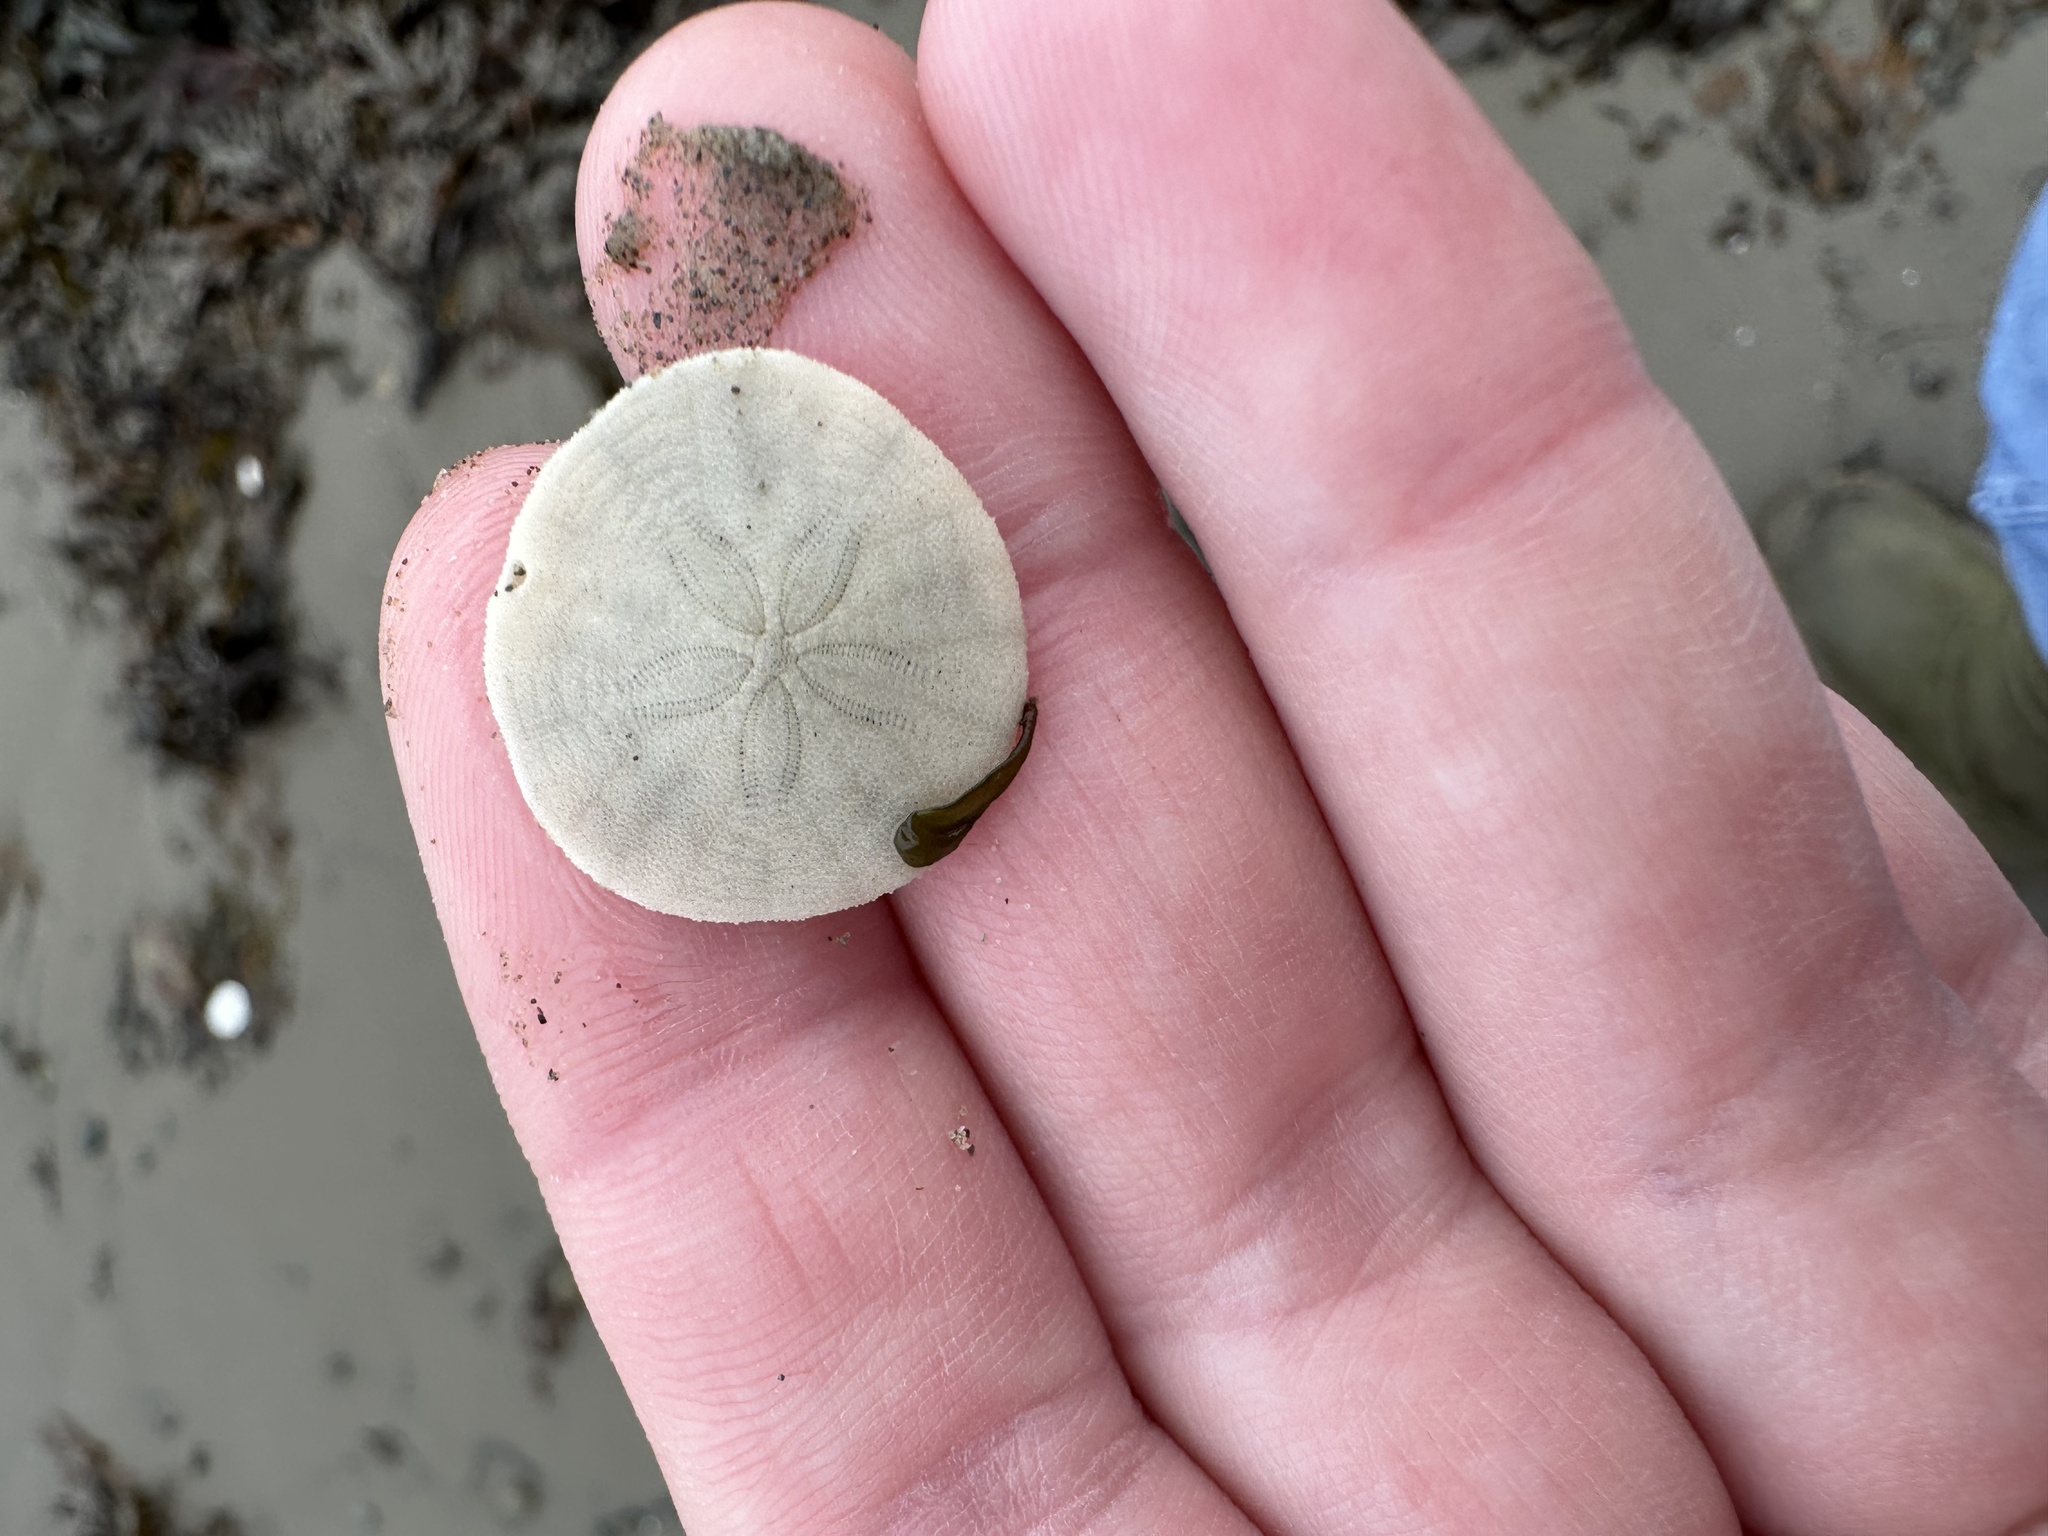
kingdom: Animalia
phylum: Echinodermata
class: Echinoidea
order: Echinolampadacea
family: Echinarachniidae
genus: Echinarachnius
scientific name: Echinarachnius parma
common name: Common sand dollar
